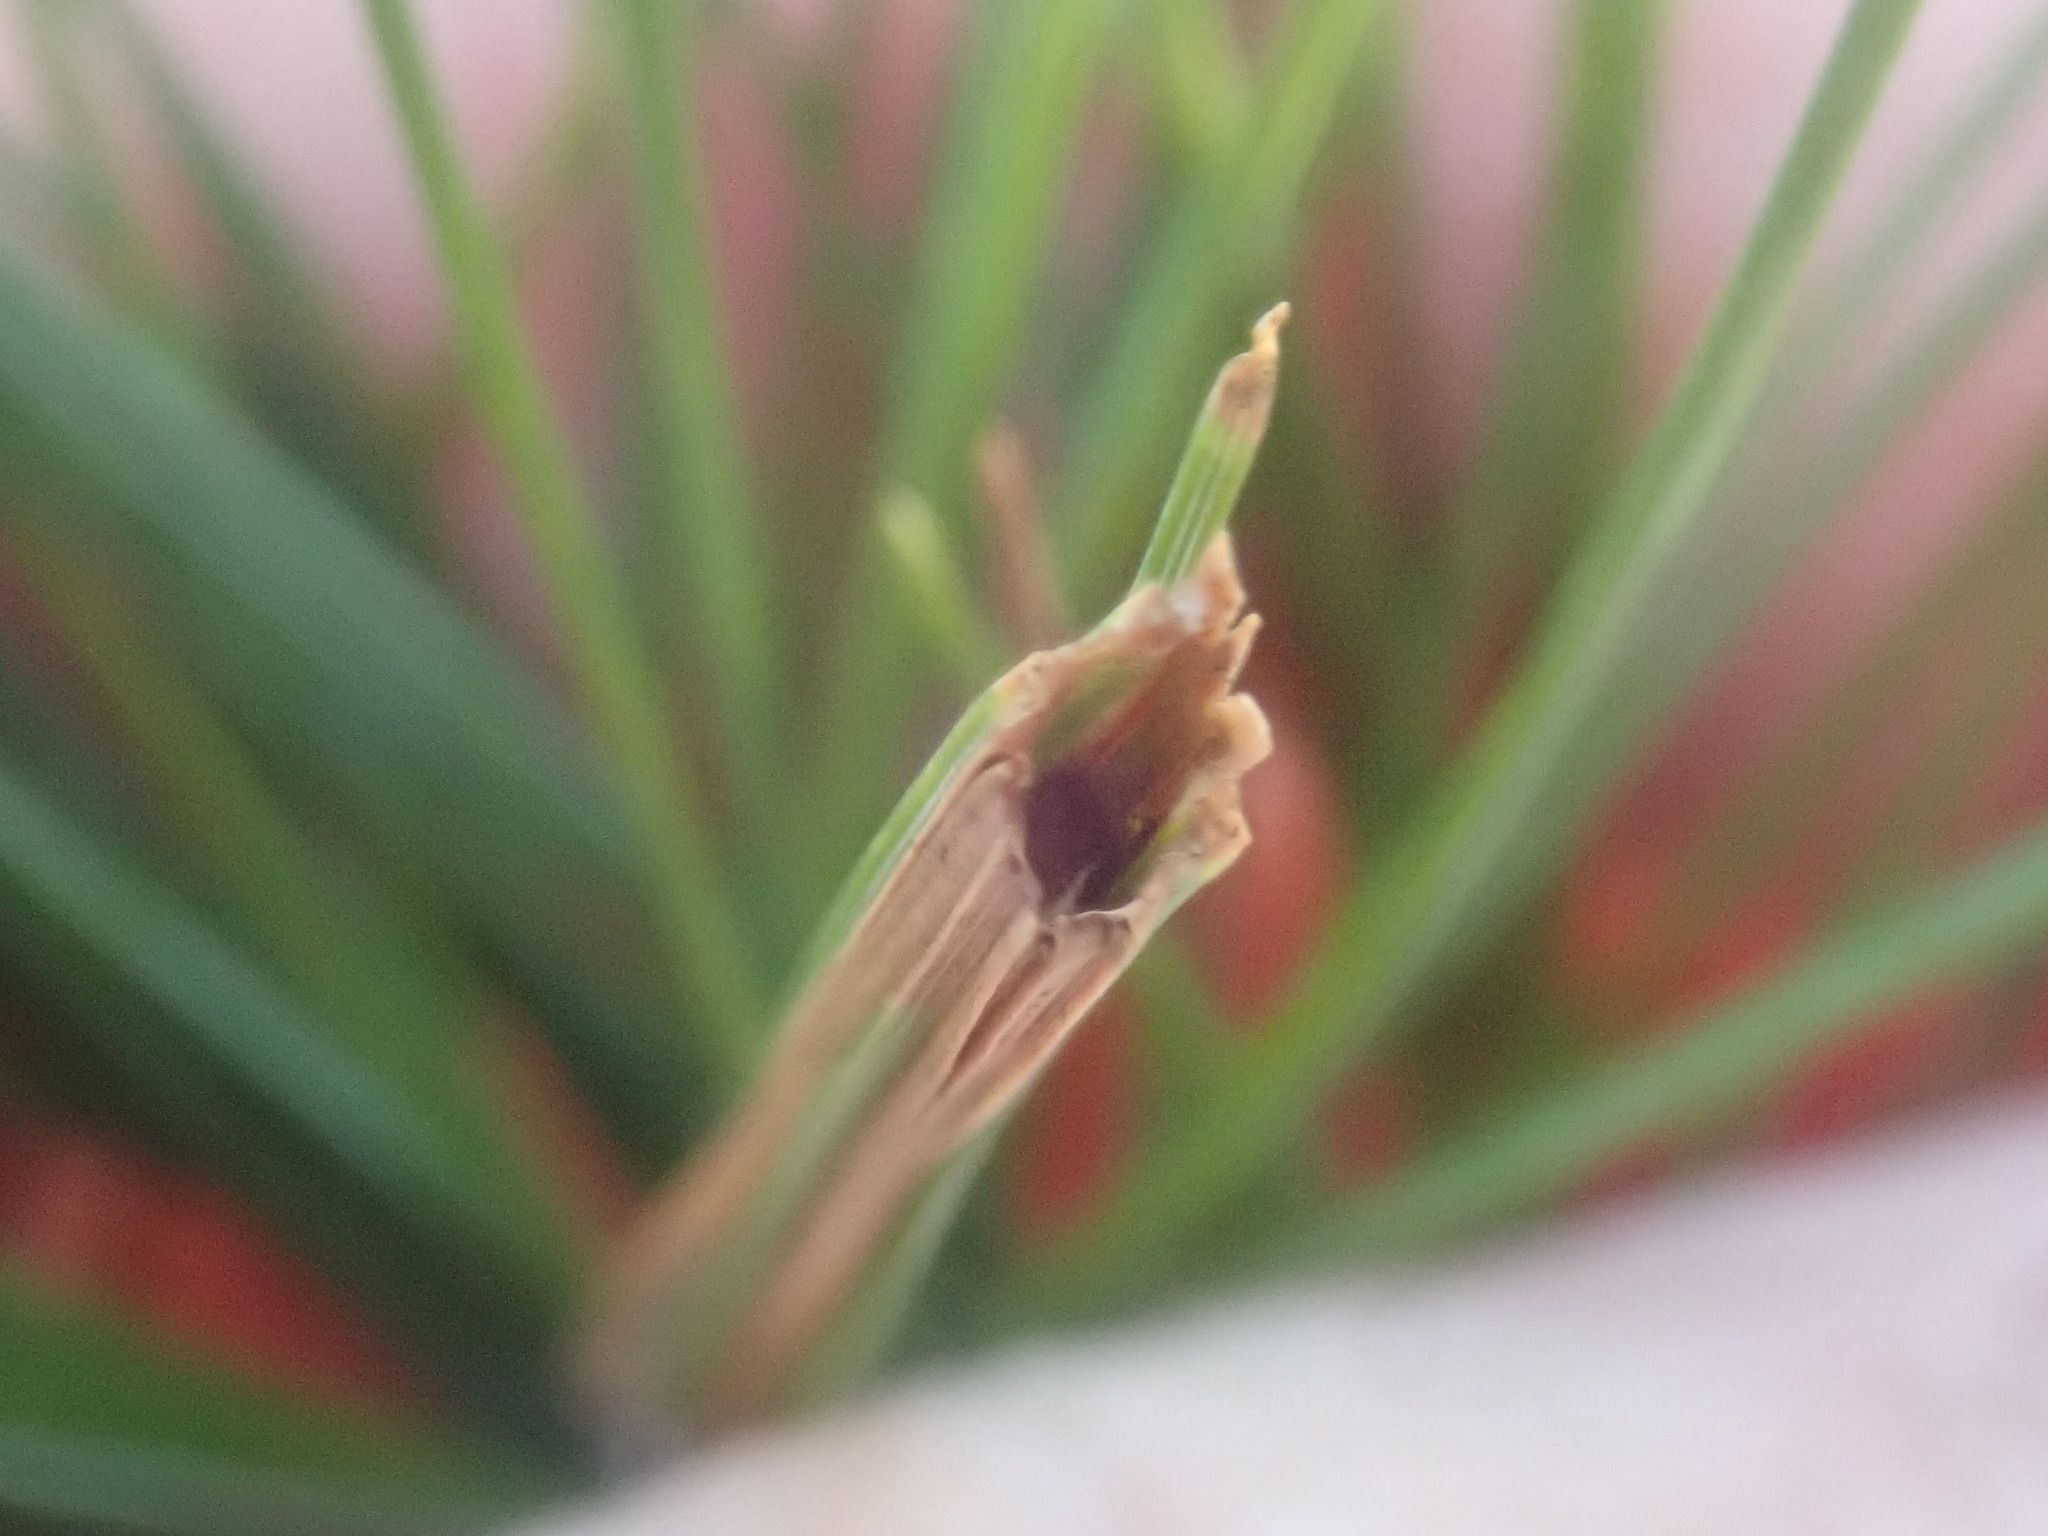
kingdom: Animalia
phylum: Arthropoda
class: Insecta
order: Lepidoptera
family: Tortricidae
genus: Argyrotaenia
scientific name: Argyrotaenia pinatubana
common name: Pine tube moth
